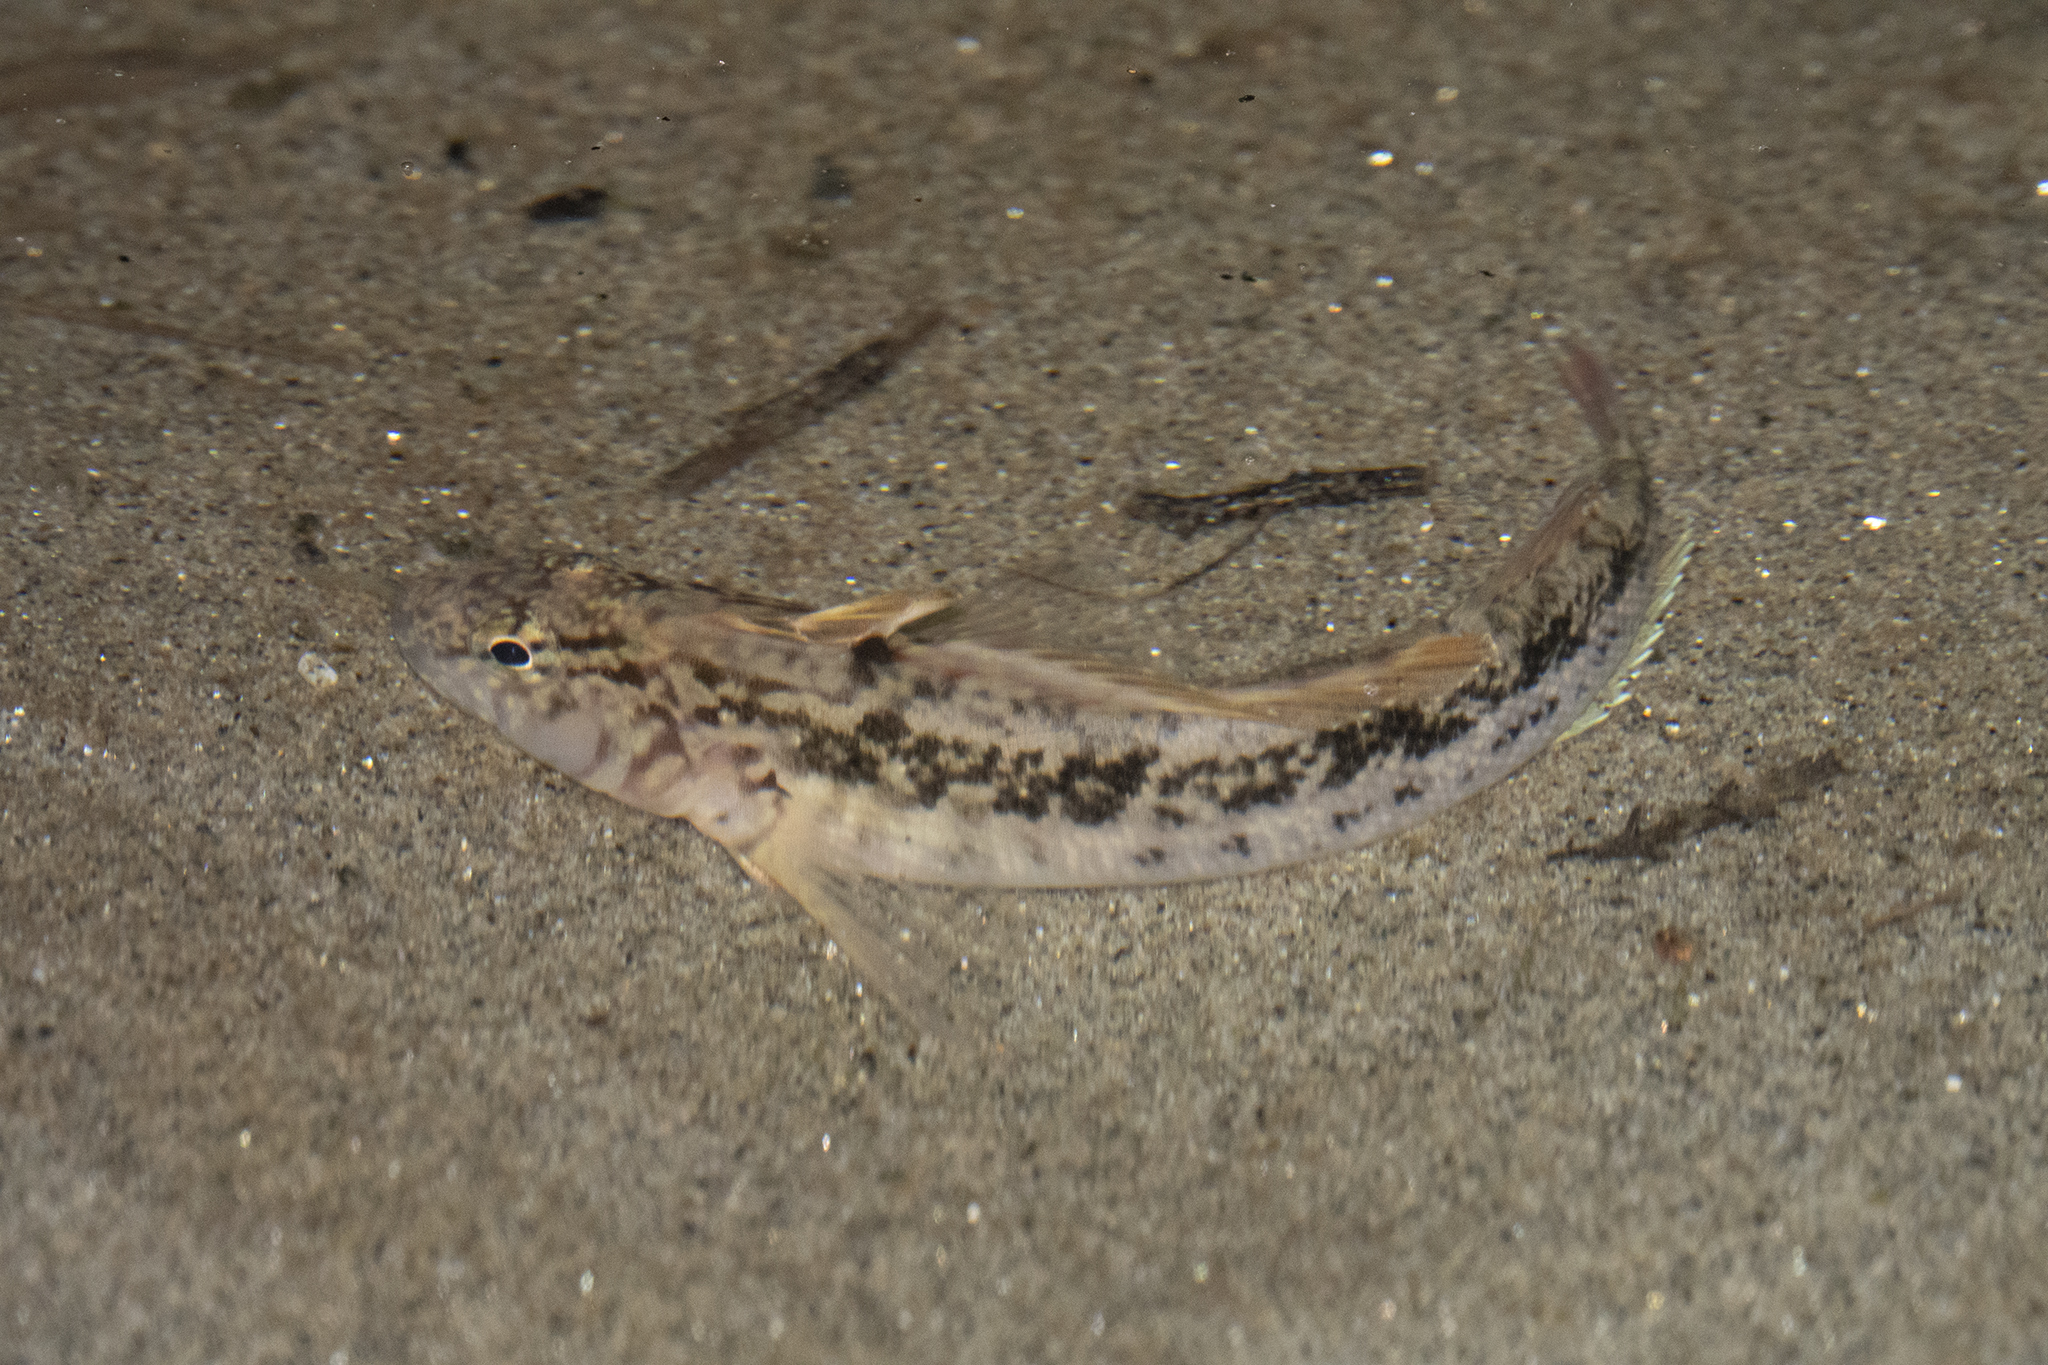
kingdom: Animalia
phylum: Chordata
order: Perciformes
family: Tripterygiidae
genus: Forsterygion
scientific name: Forsterygion nigripenne
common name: Cockabully
